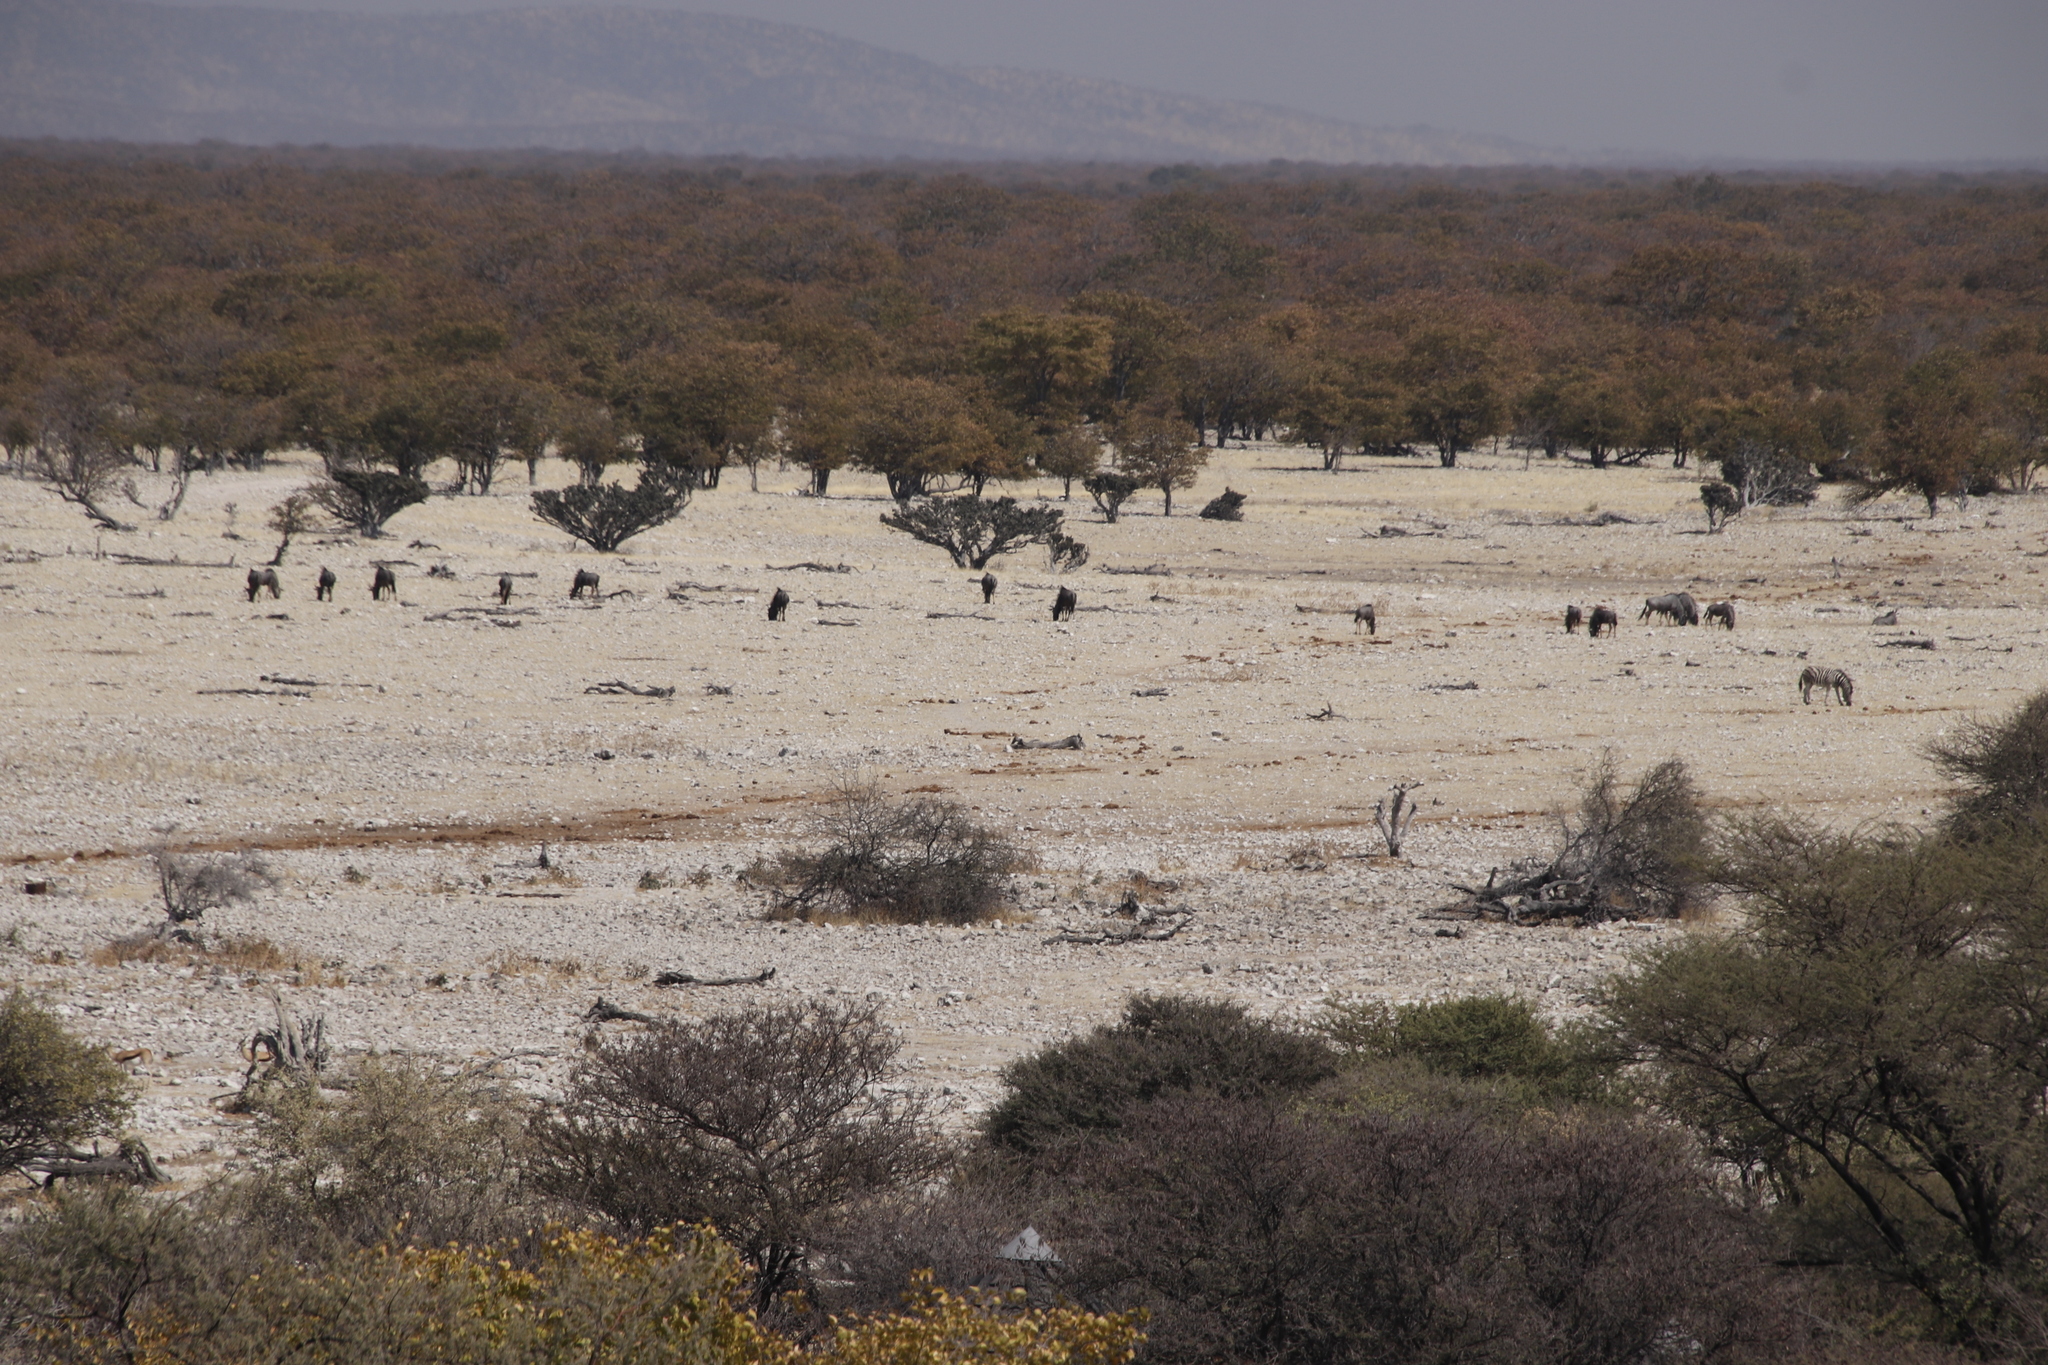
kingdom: Plantae
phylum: Tracheophyta
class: Magnoliopsida
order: Fabales
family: Fabaceae
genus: Colophospermum
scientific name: Colophospermum mopane
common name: Mopane
